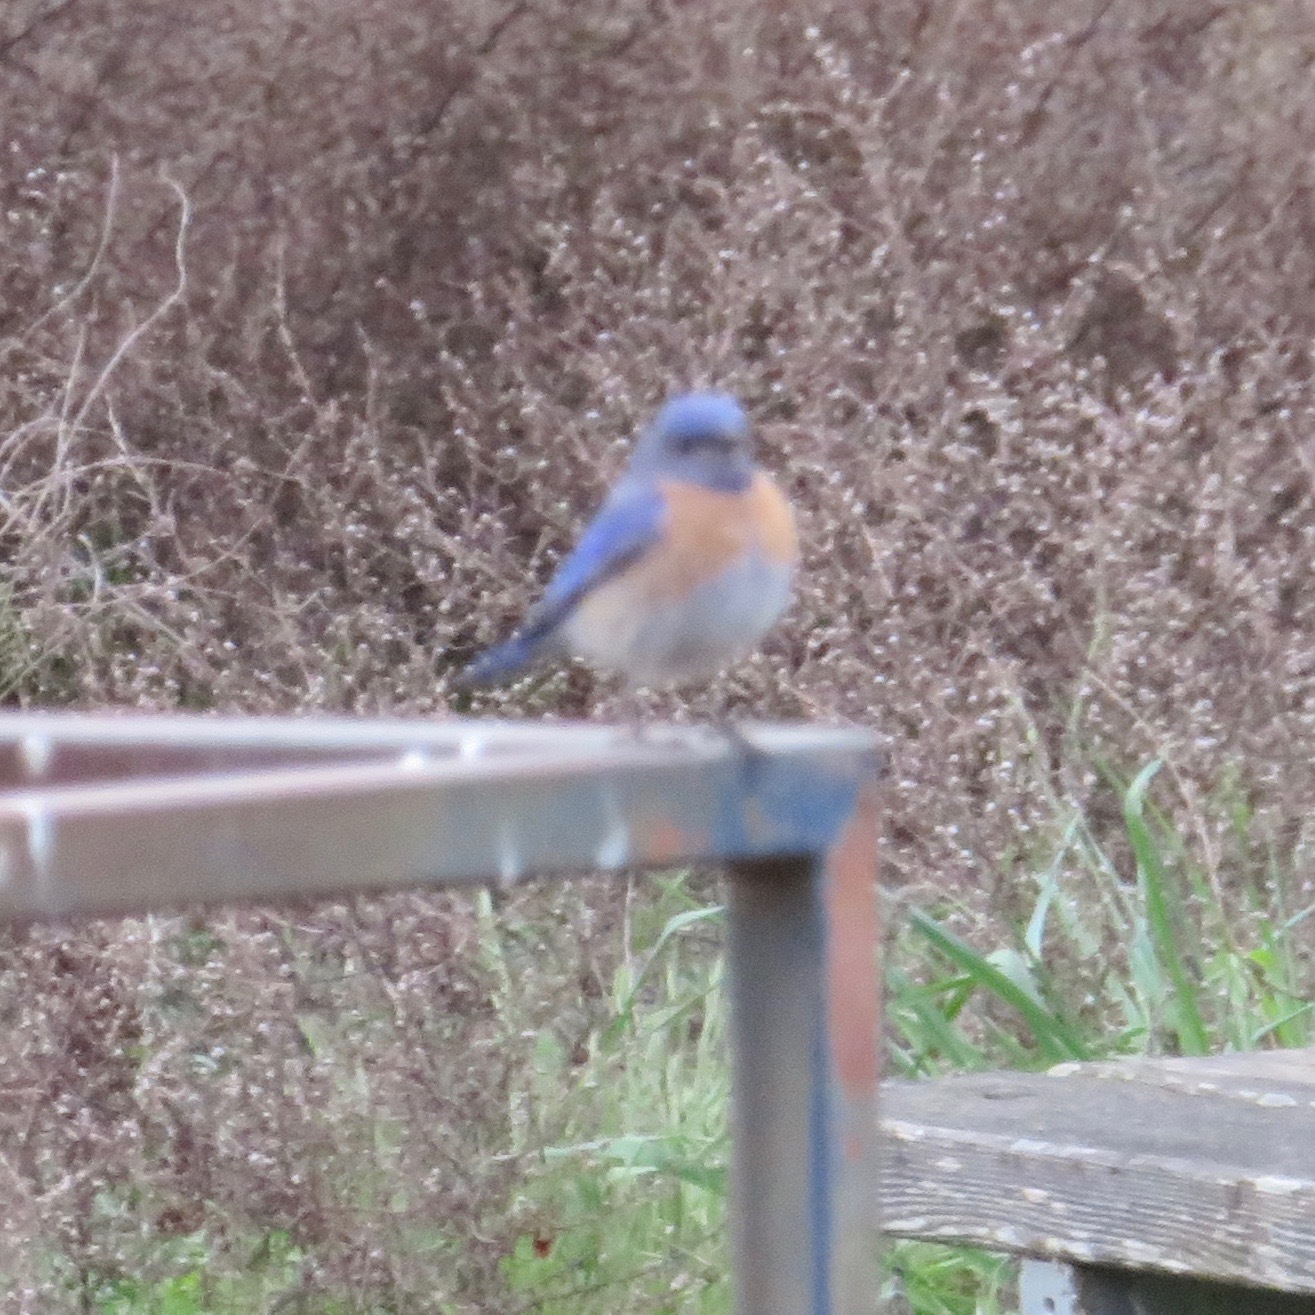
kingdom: Animalia
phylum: Chordata
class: Aves
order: Passeriformes
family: Turdidae
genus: Sialia
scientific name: Sialia mexicana
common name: Western bluebird
